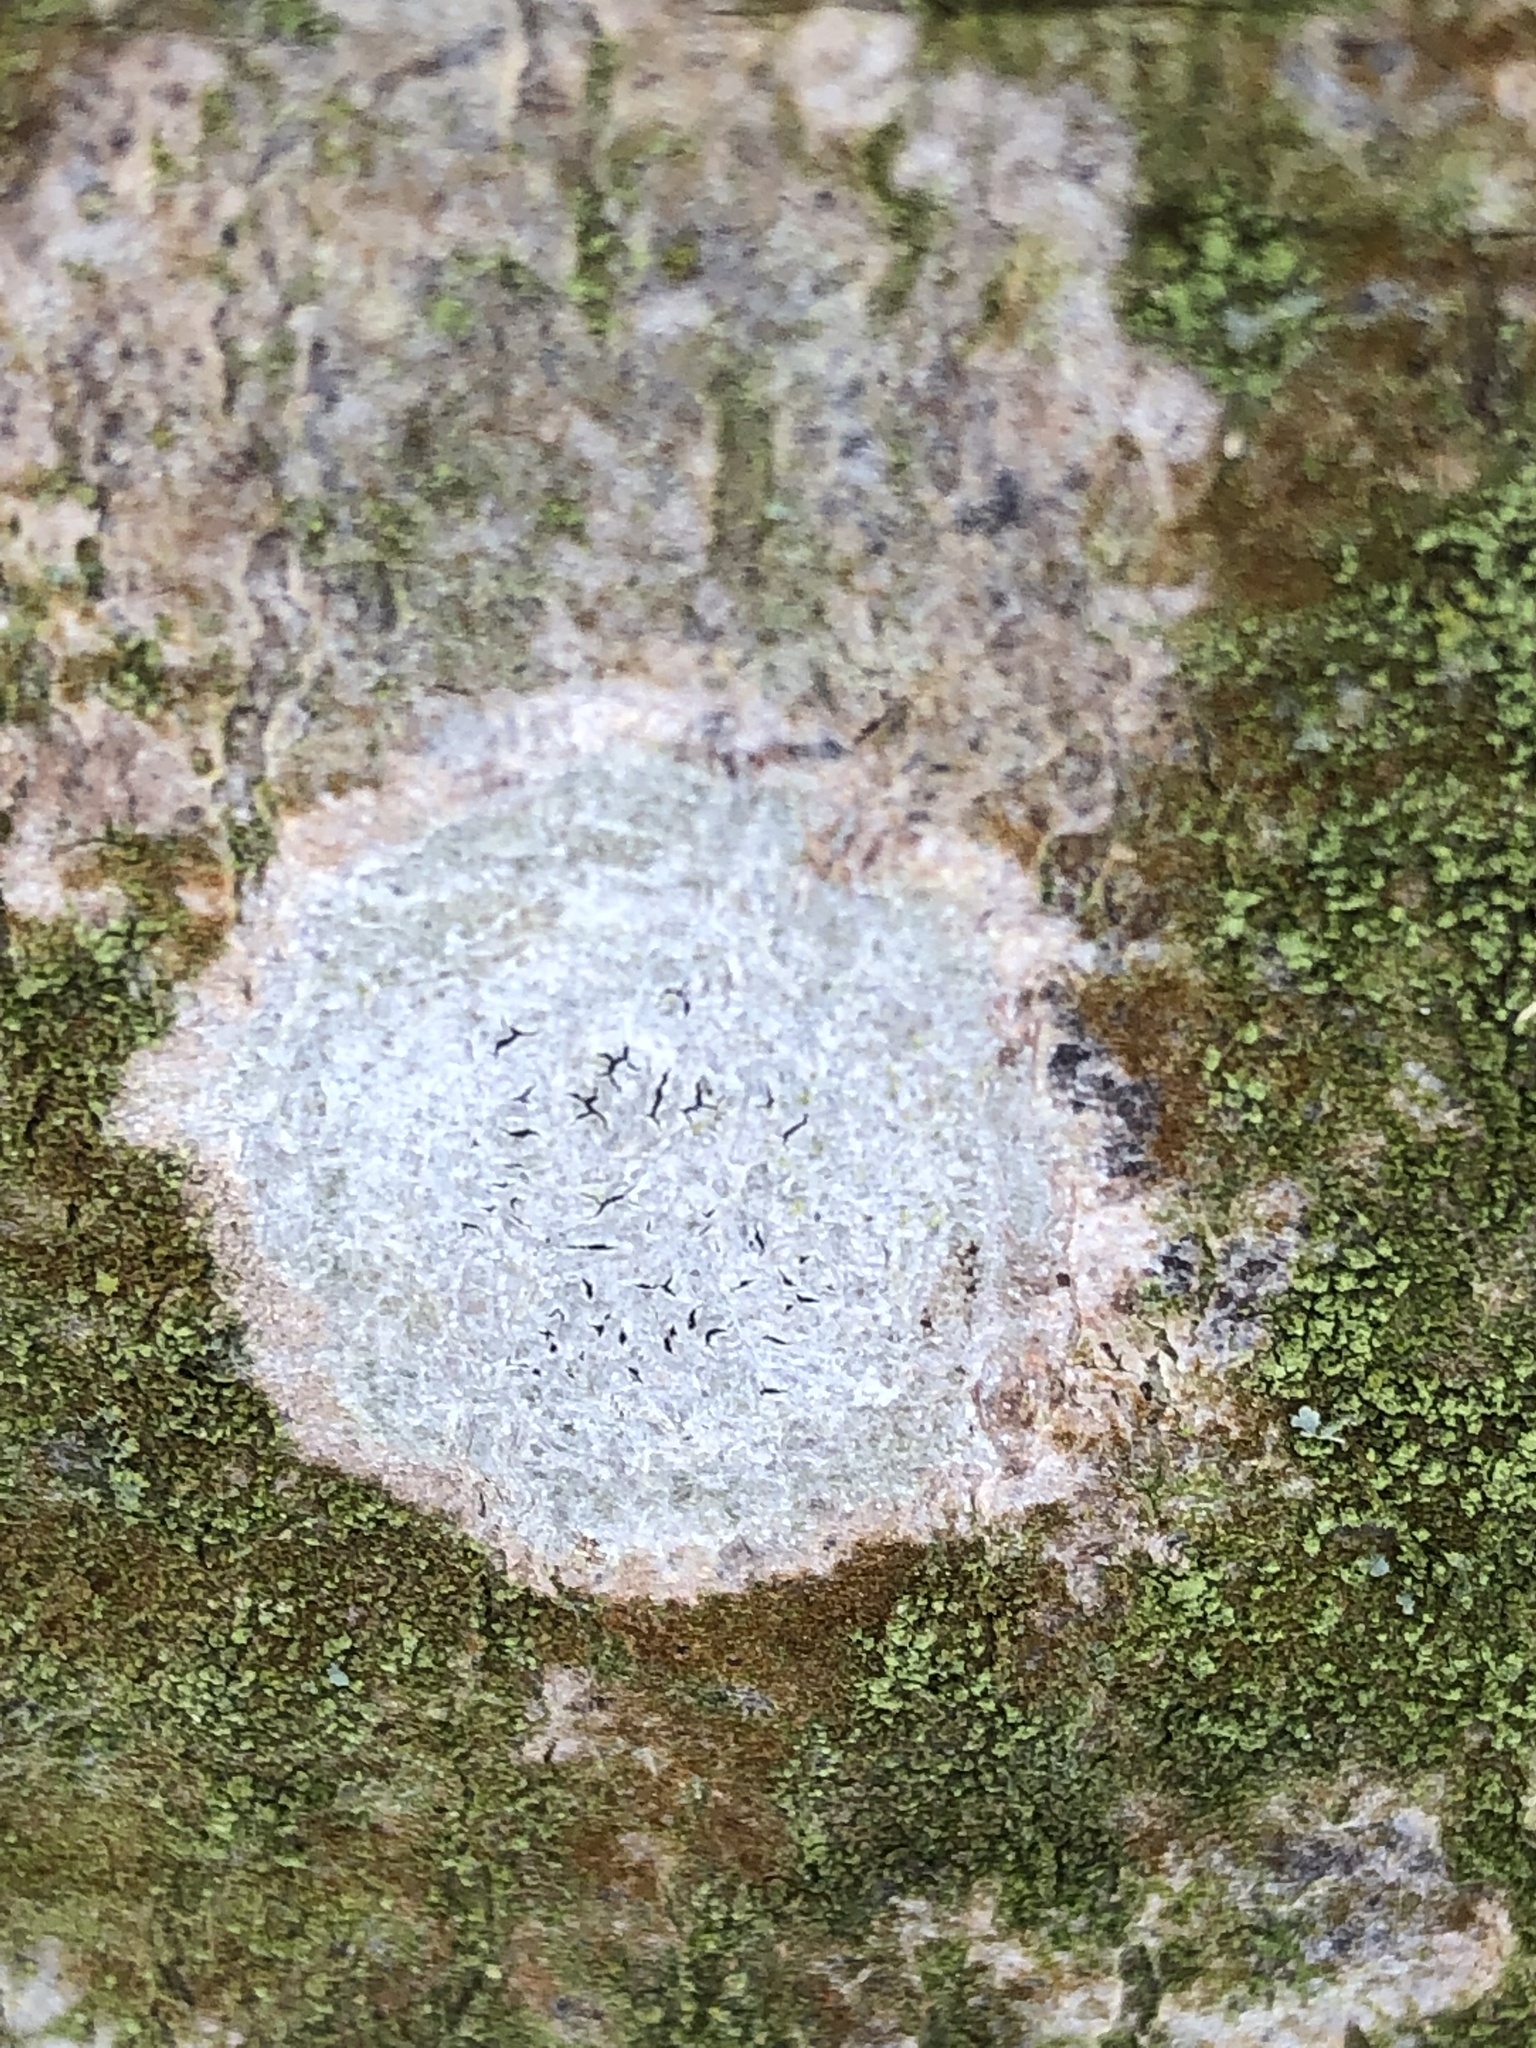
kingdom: Fungi
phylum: Ascomycota
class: Lecanoromycetes
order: Ostropales
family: Graphidaceae
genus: Graphis
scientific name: Graphis scripta
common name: Script lichen
